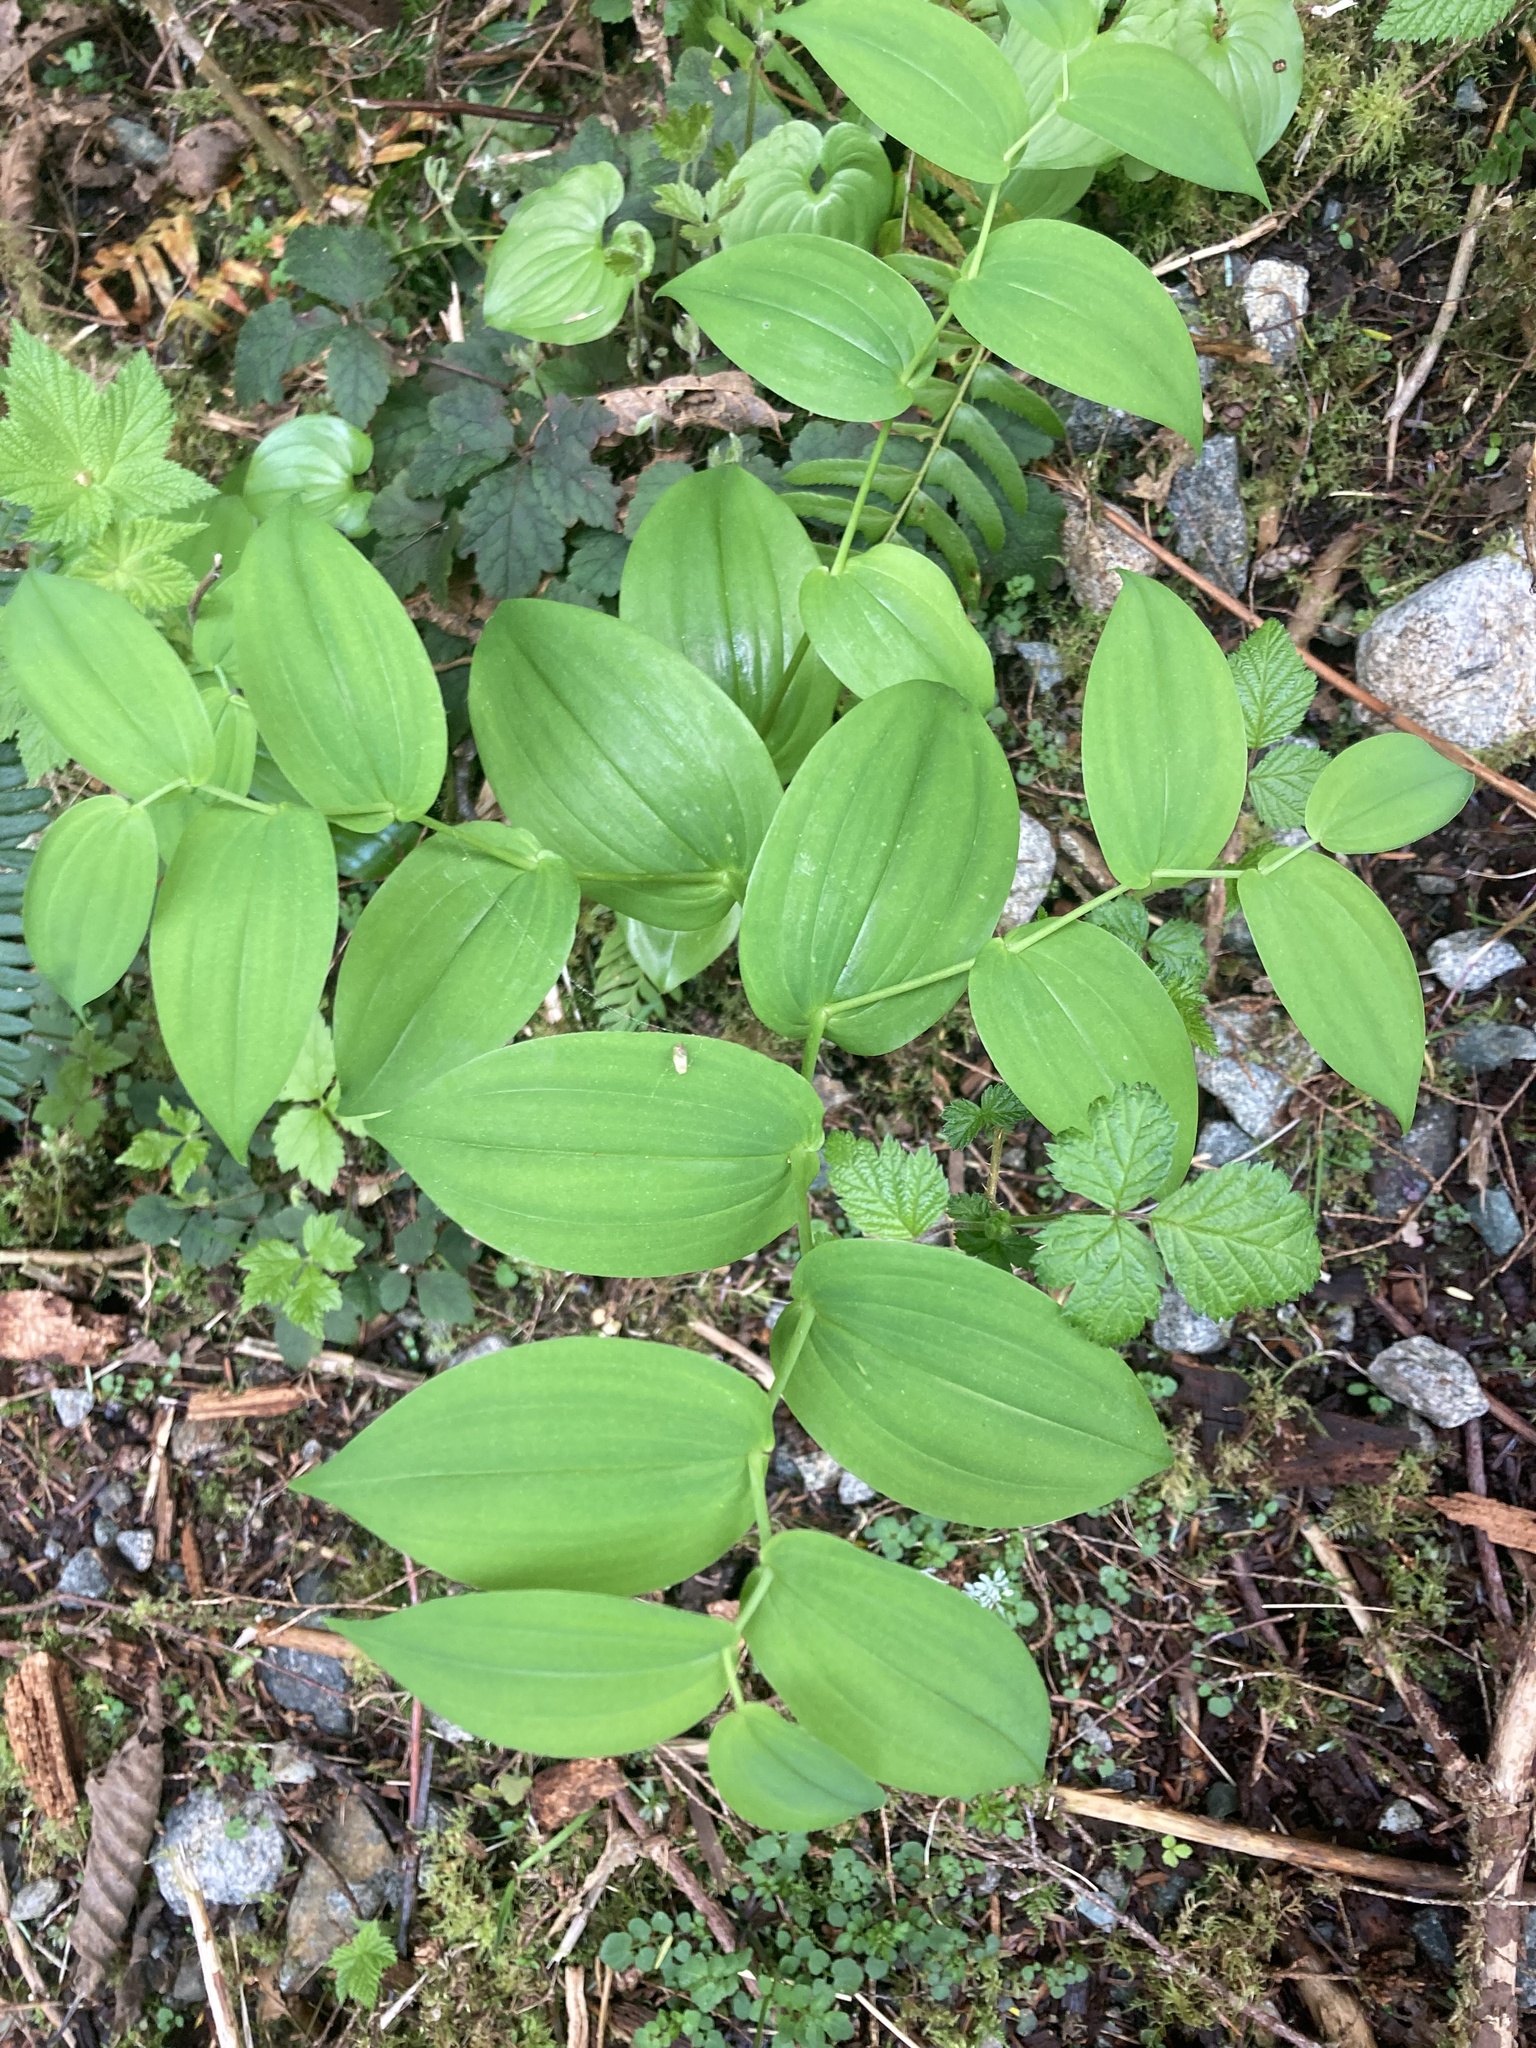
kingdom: Plantae
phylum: Tracheophyta
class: Liliopsida
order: Liliales
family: Liliaceae
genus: Streptopus
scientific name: Streptopus amplexifolius
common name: Clasp twisted stalk
